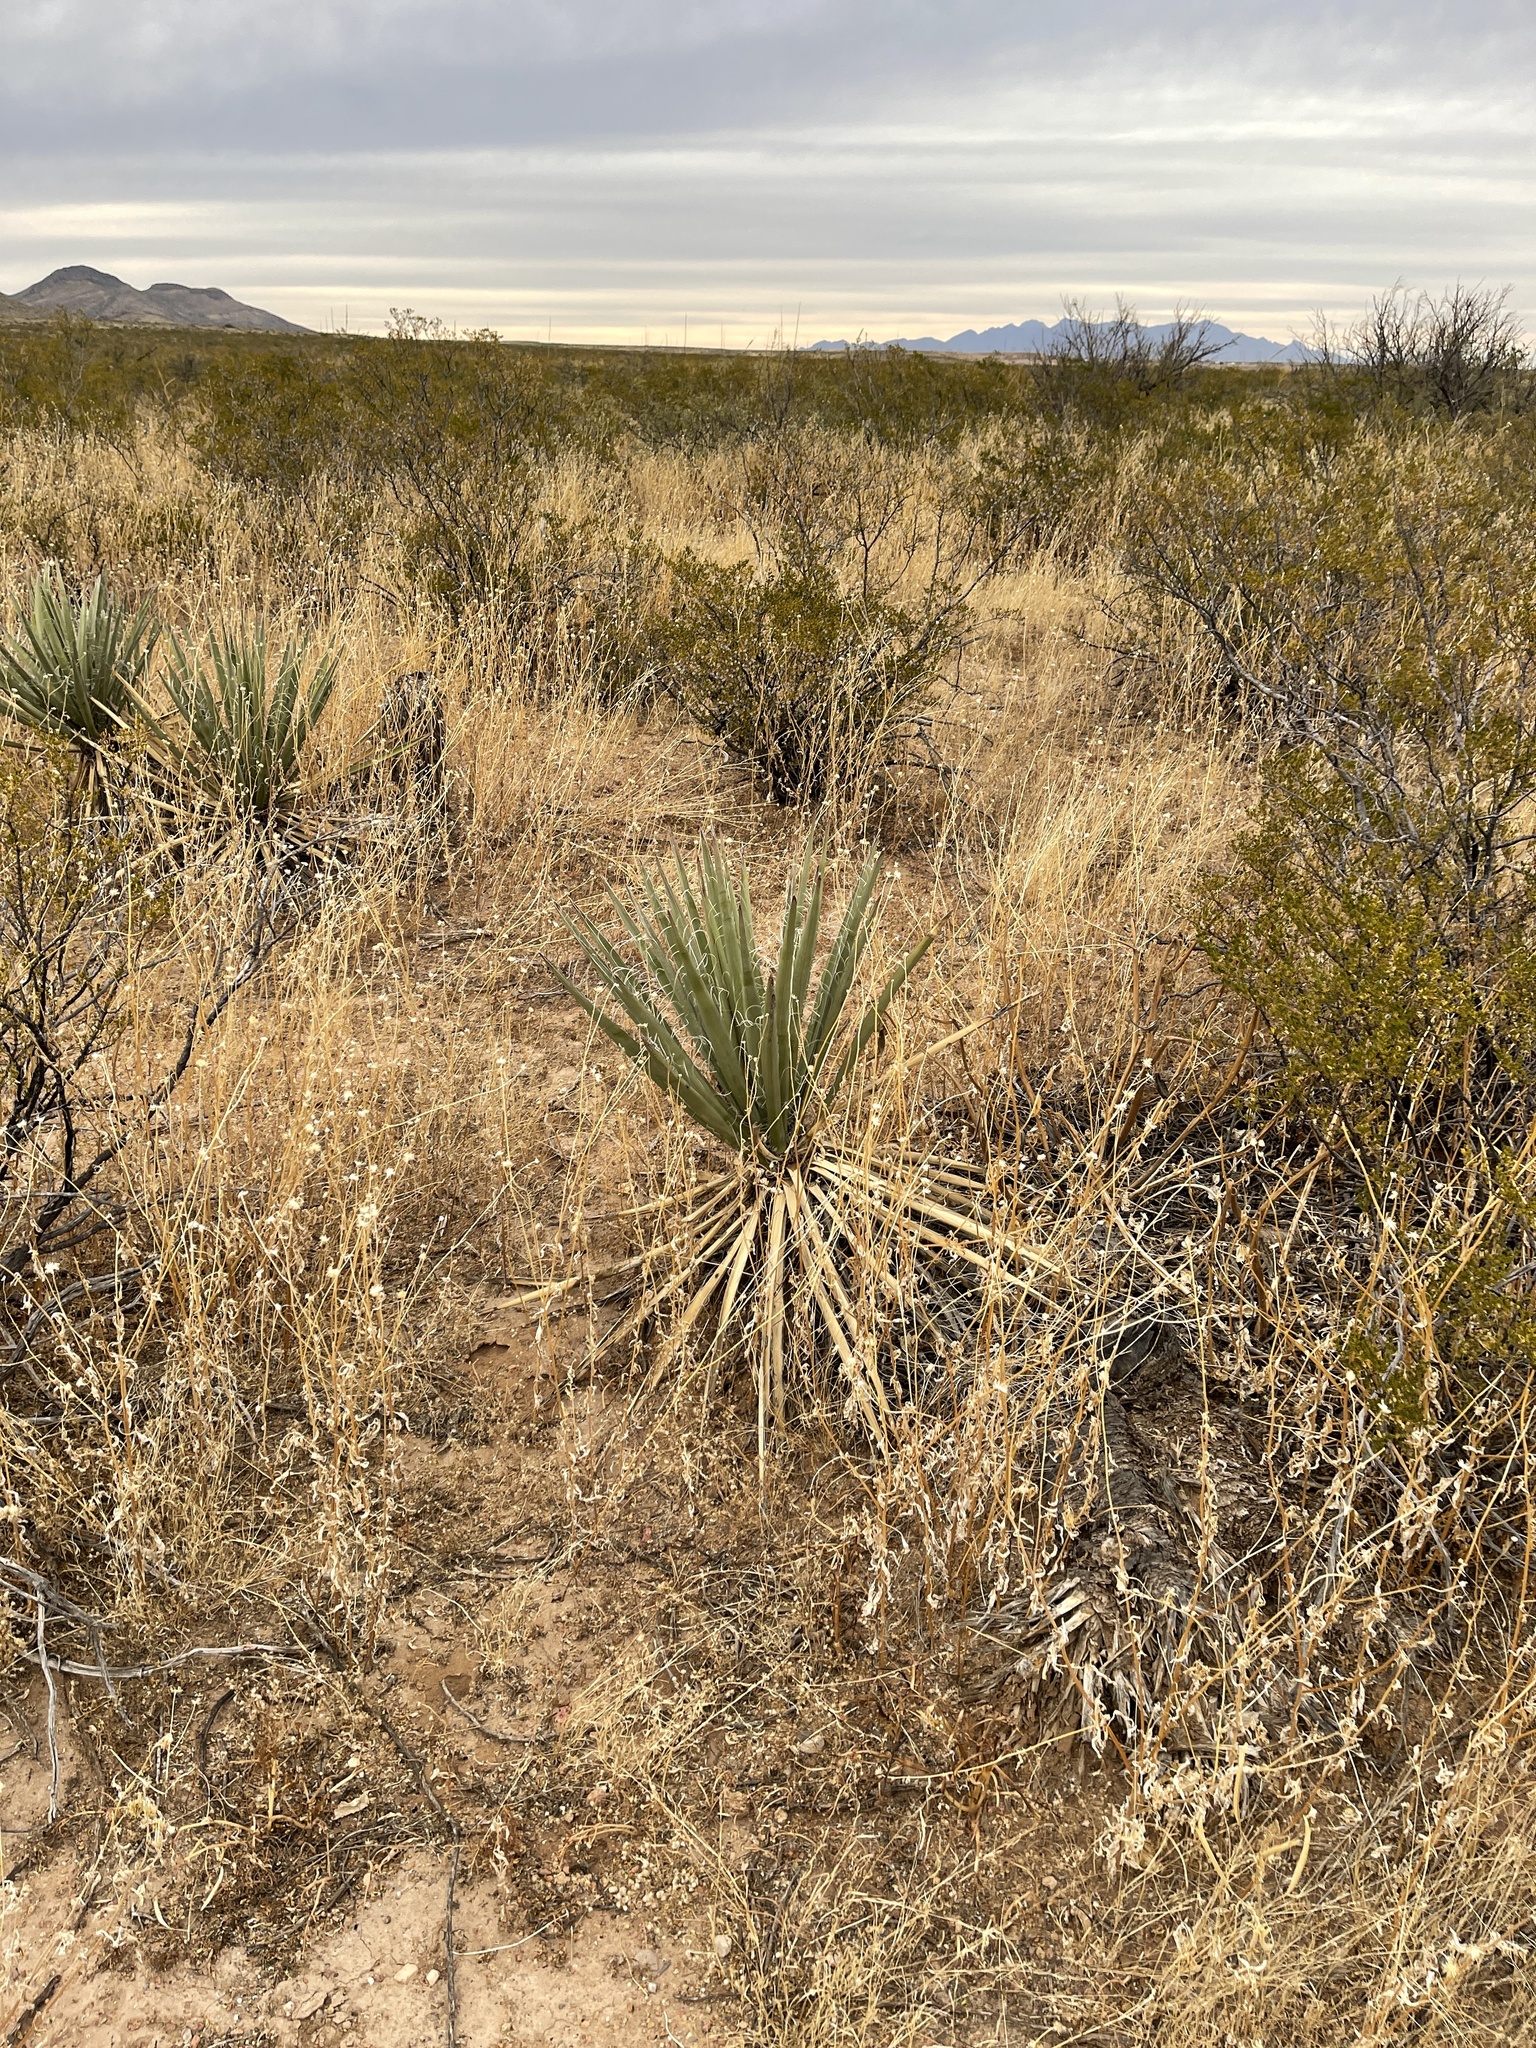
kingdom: Plantae
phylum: Tracheophyta
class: Liliopsida
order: Asparagales
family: Asparagaceae
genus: Yucca
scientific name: Yucca baccata
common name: Banana yucca
